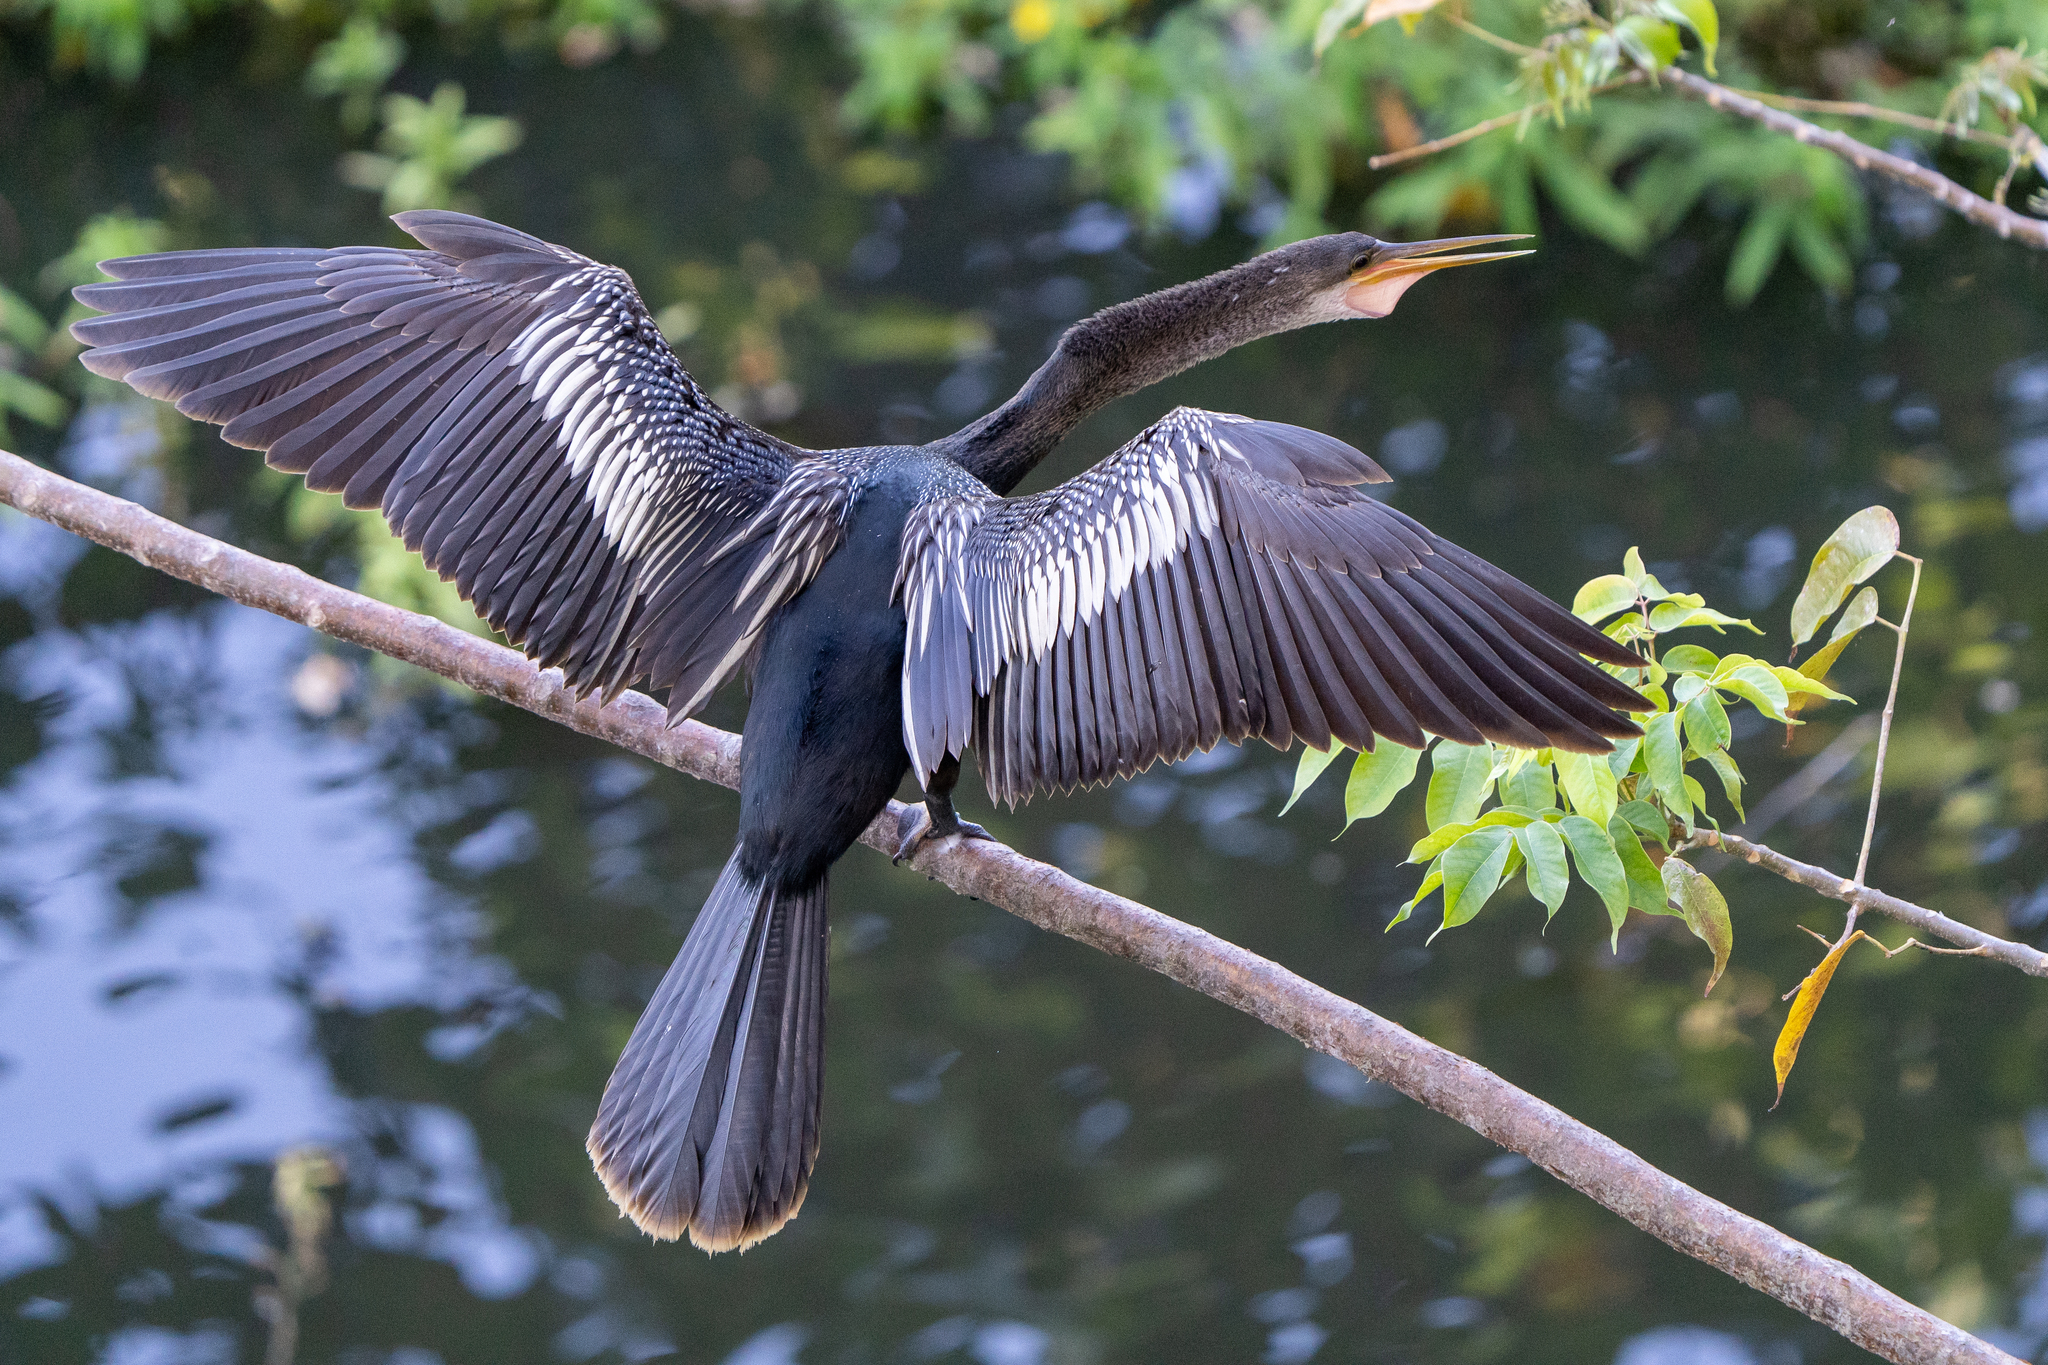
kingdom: Animalia
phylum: Chordata
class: Aves
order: Suliformes
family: Anhingidae
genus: Anhinga
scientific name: Anhinga anhinga
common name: Anhinga
